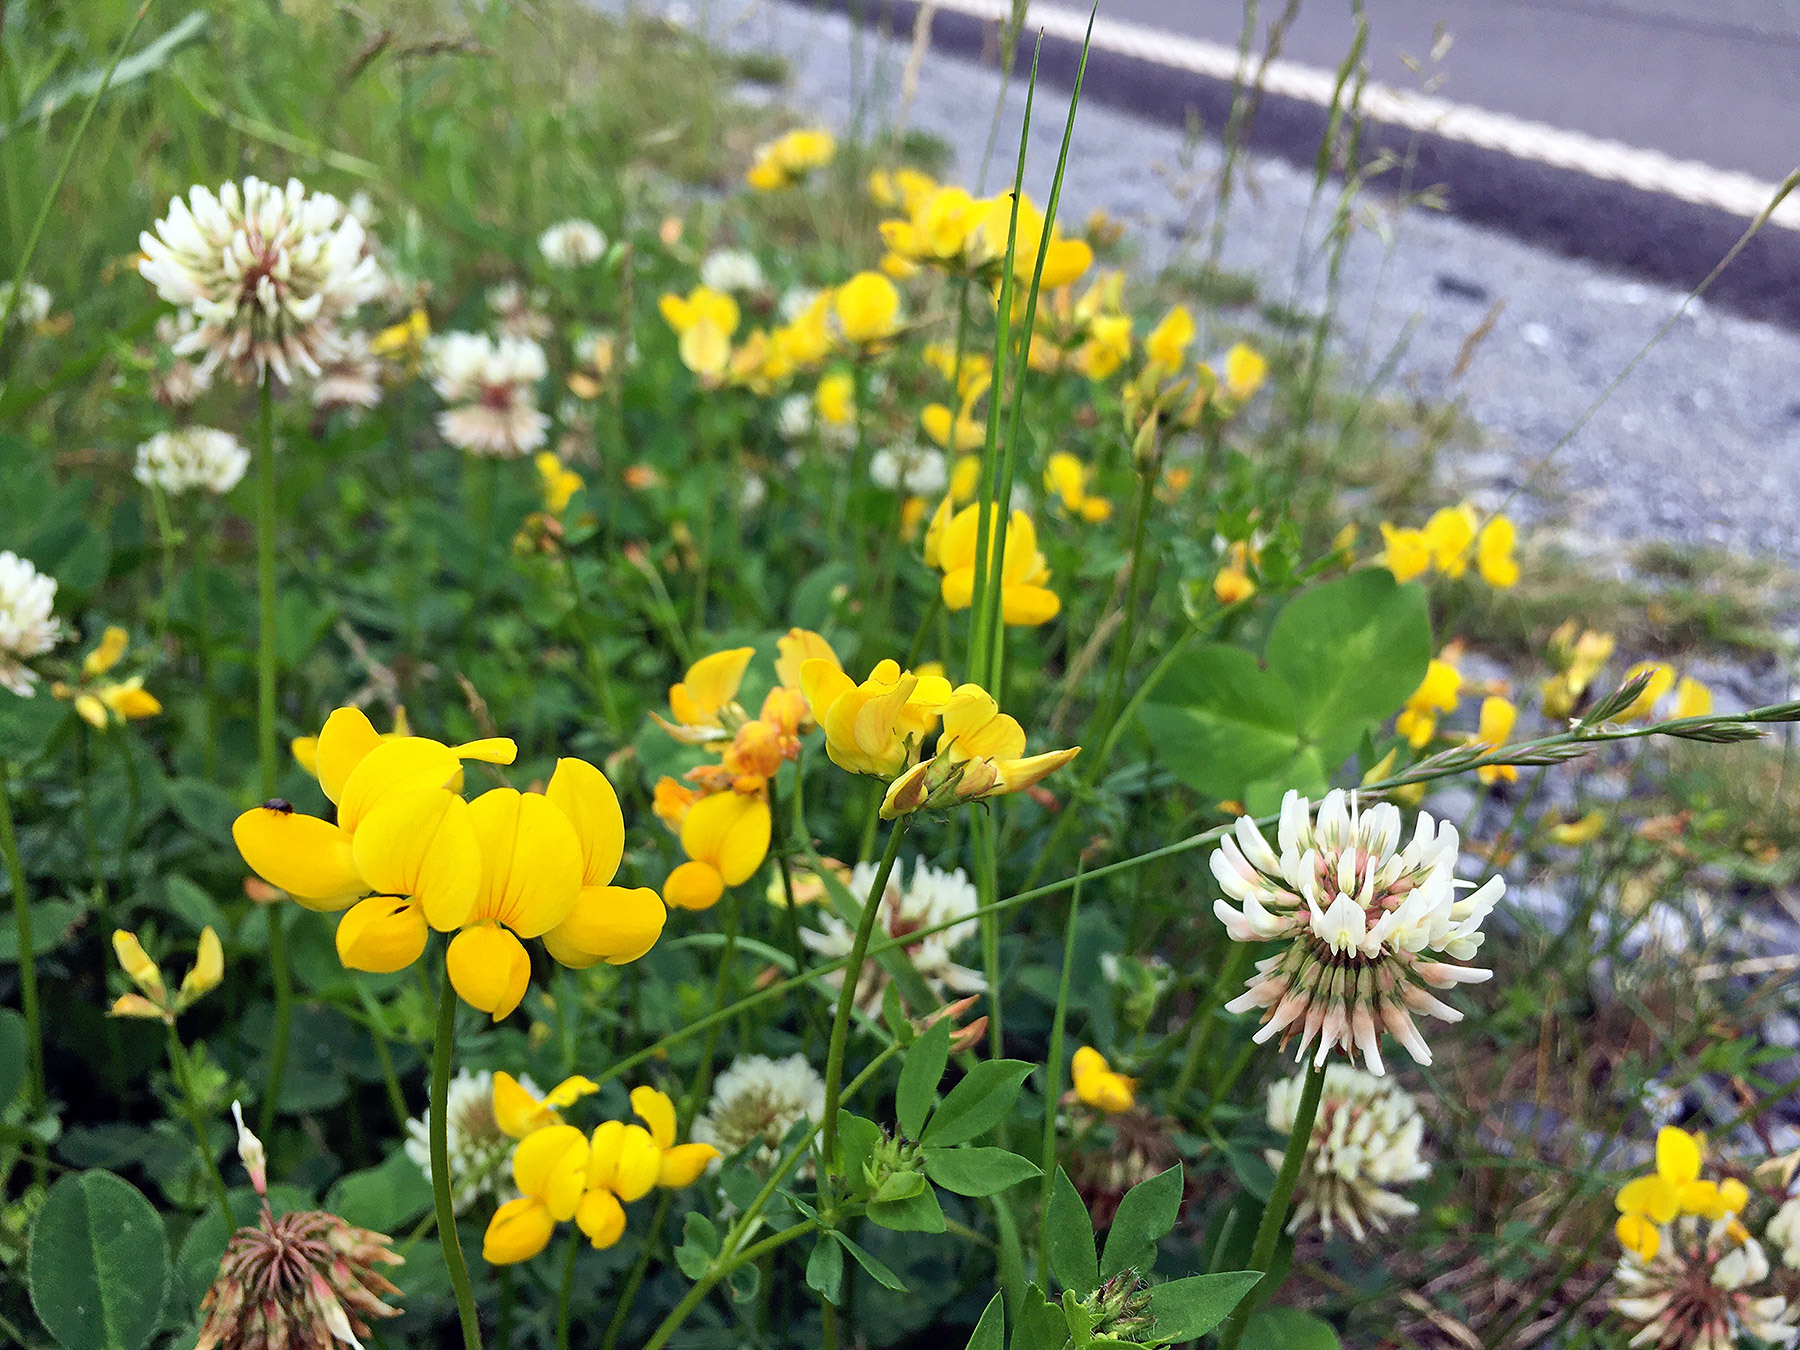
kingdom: Plantae
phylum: Tracheophyta
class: Magnoliopsida
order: Fabales
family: Fabaceae
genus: Lotus
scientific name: Lotus corniculatus
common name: Common bird's-foot-trefoil
